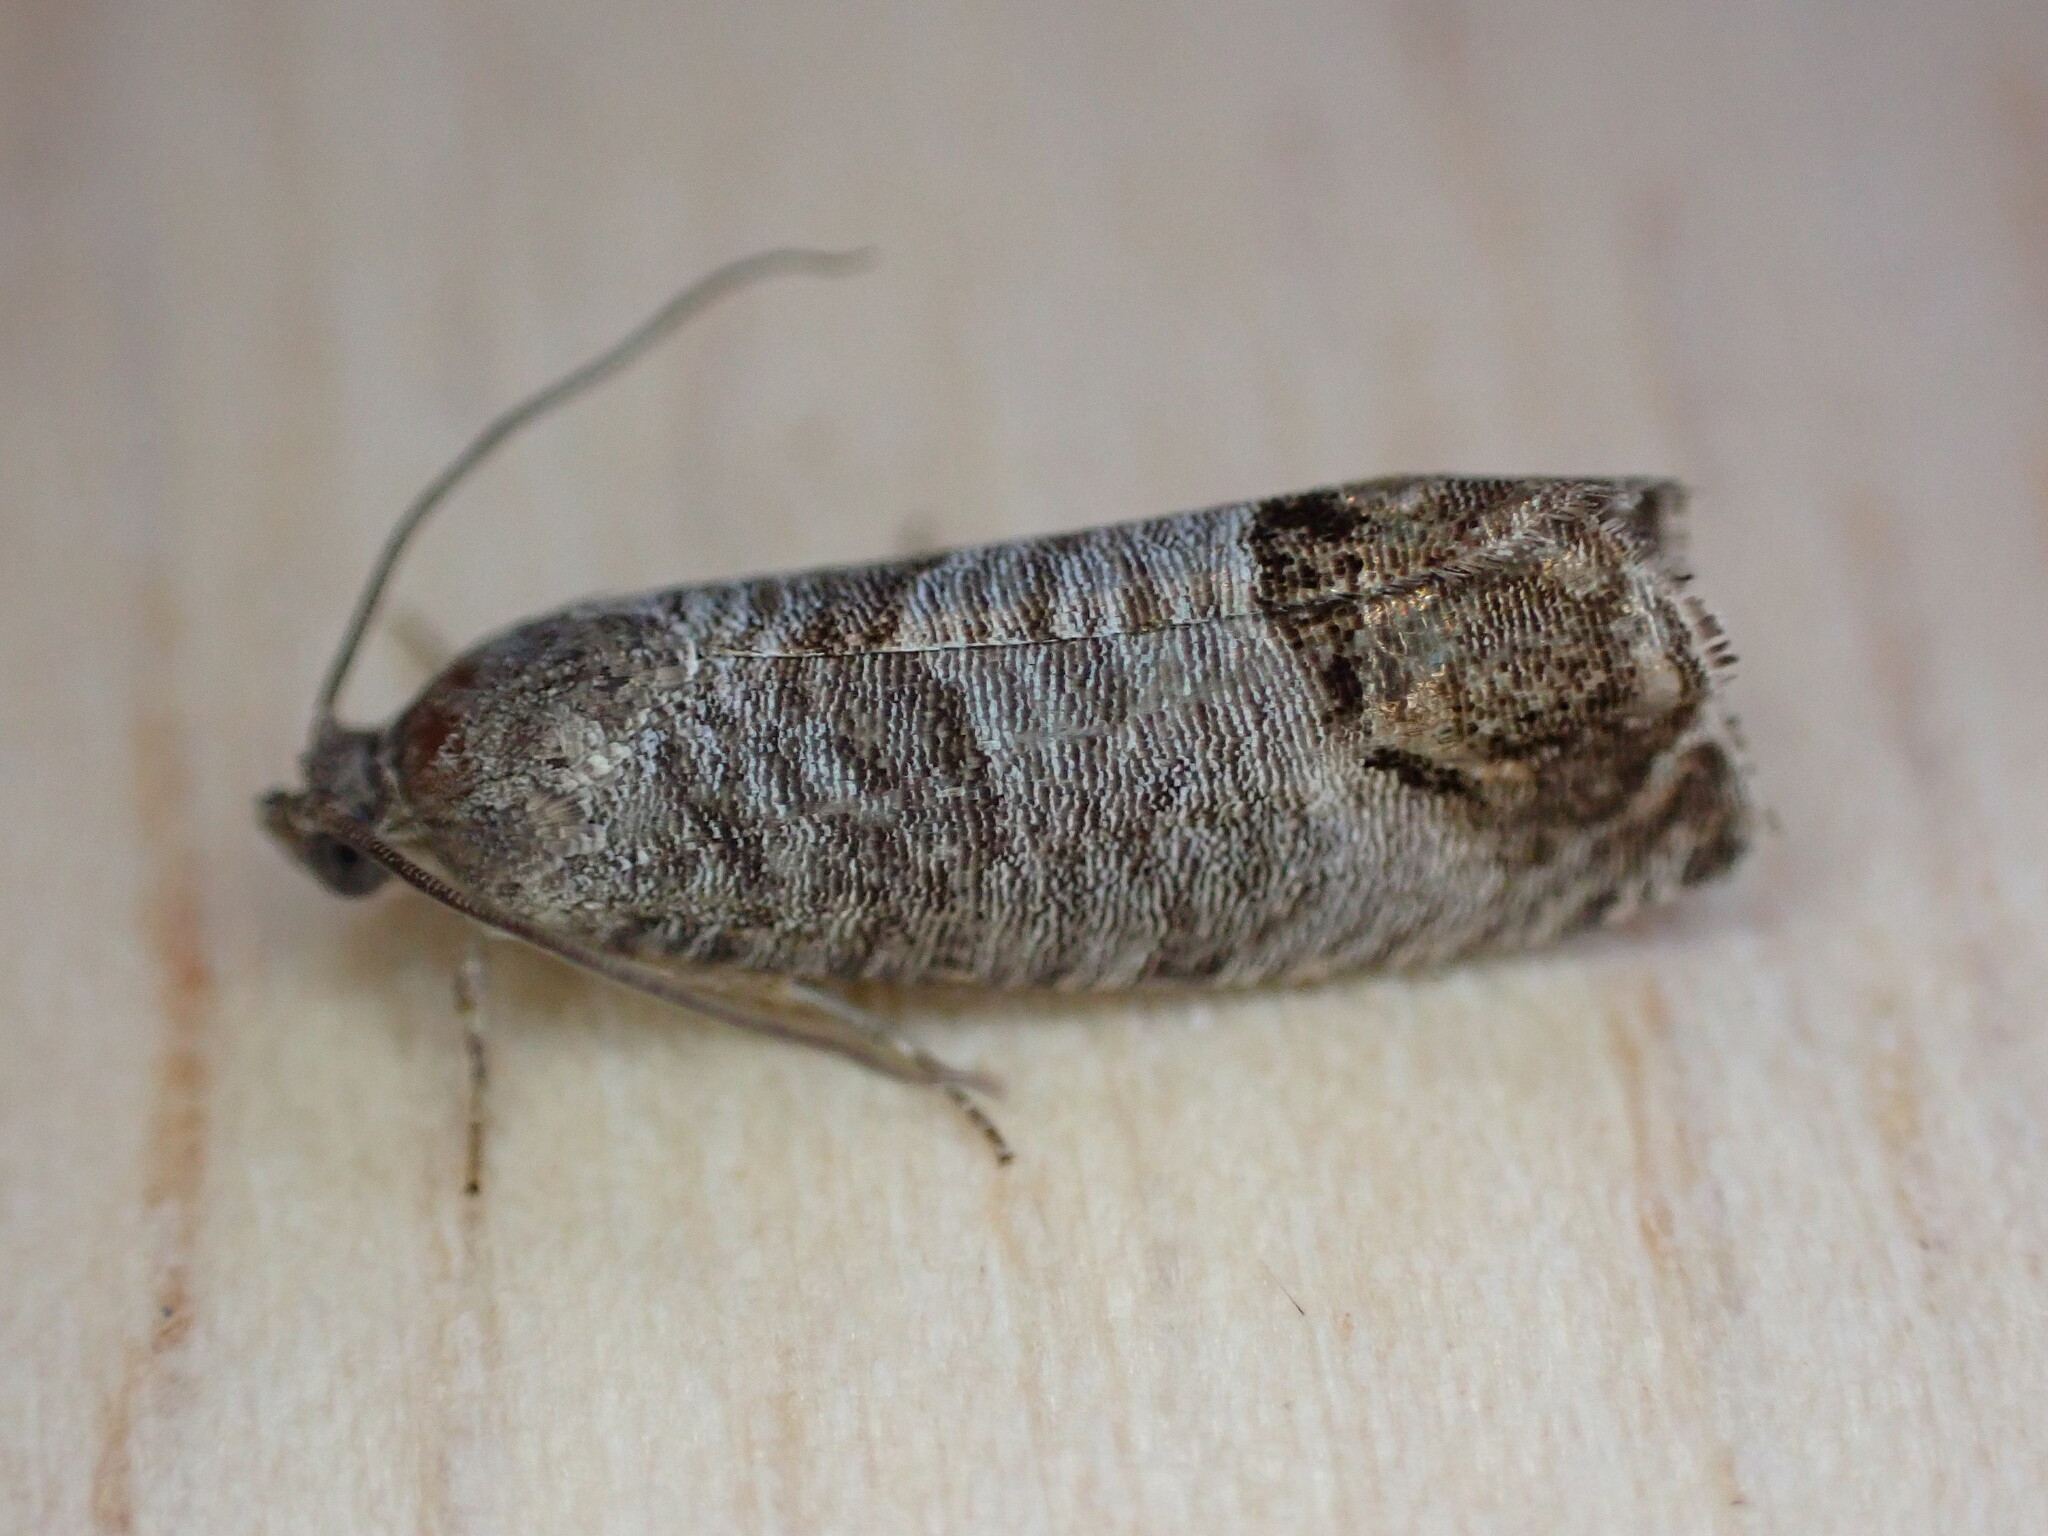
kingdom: Animalia
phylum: Arthropoda
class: Insecta
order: Lepidoptera
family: Tortricidae
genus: Cydia
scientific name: Cydia pomonella
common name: Codling moth
